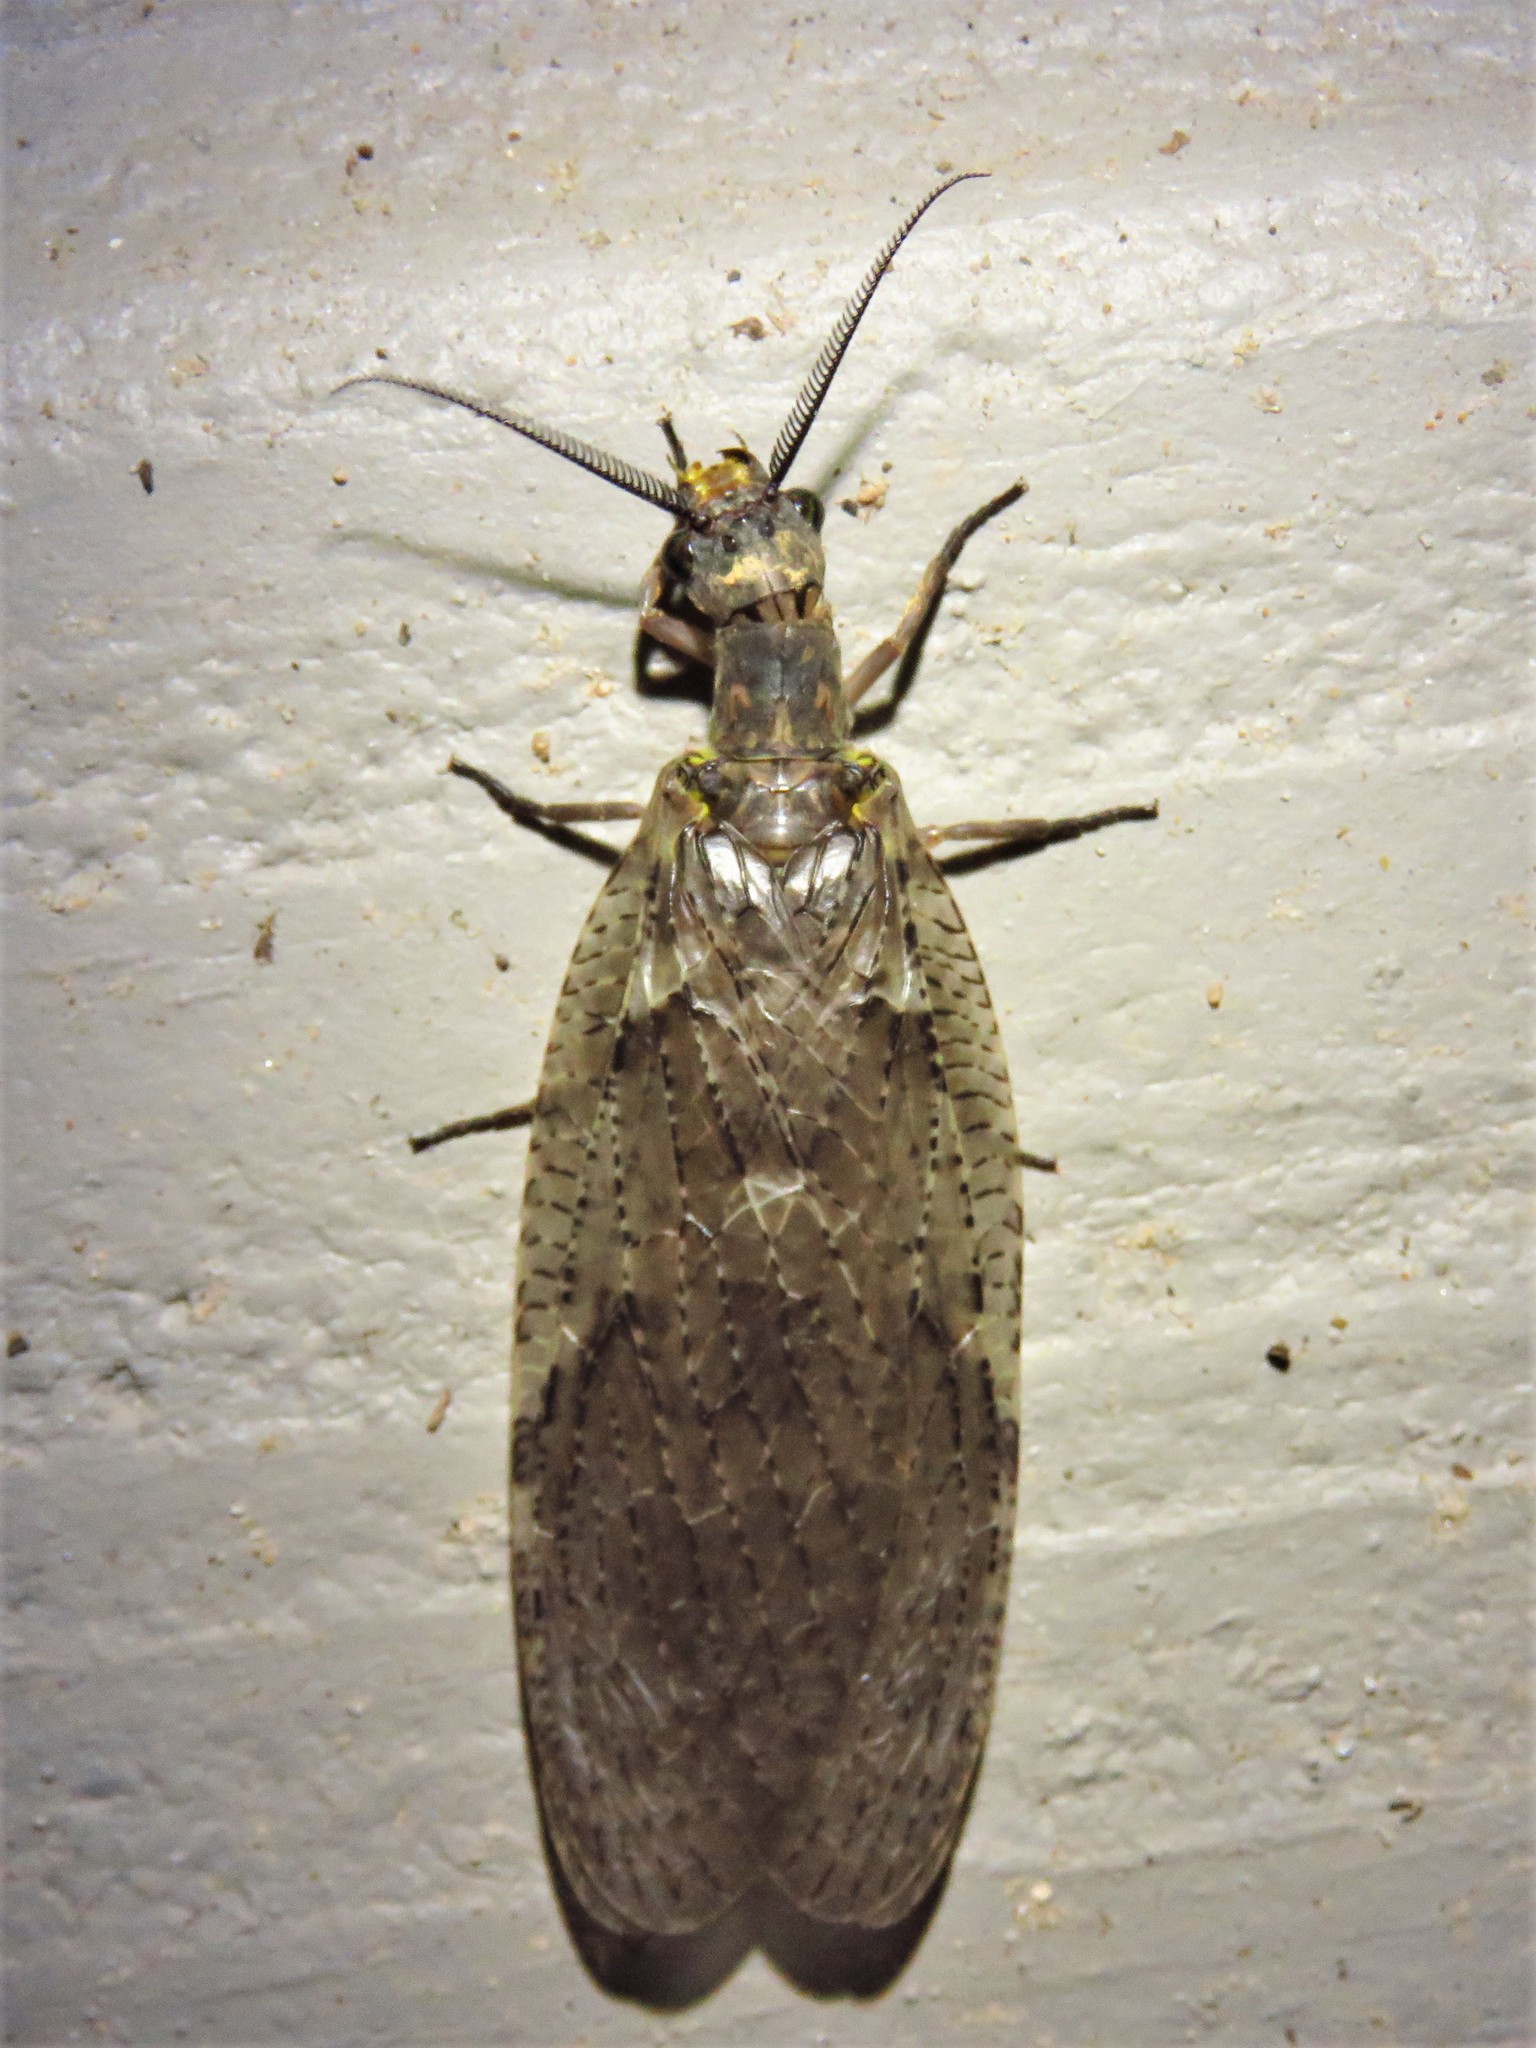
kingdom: Animalia
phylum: Arthropoda
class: Insecta
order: Megaloptera
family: Corydalidae
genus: Chauliodes
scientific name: Chauliodes pectinicornis
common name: Summer fishfly
